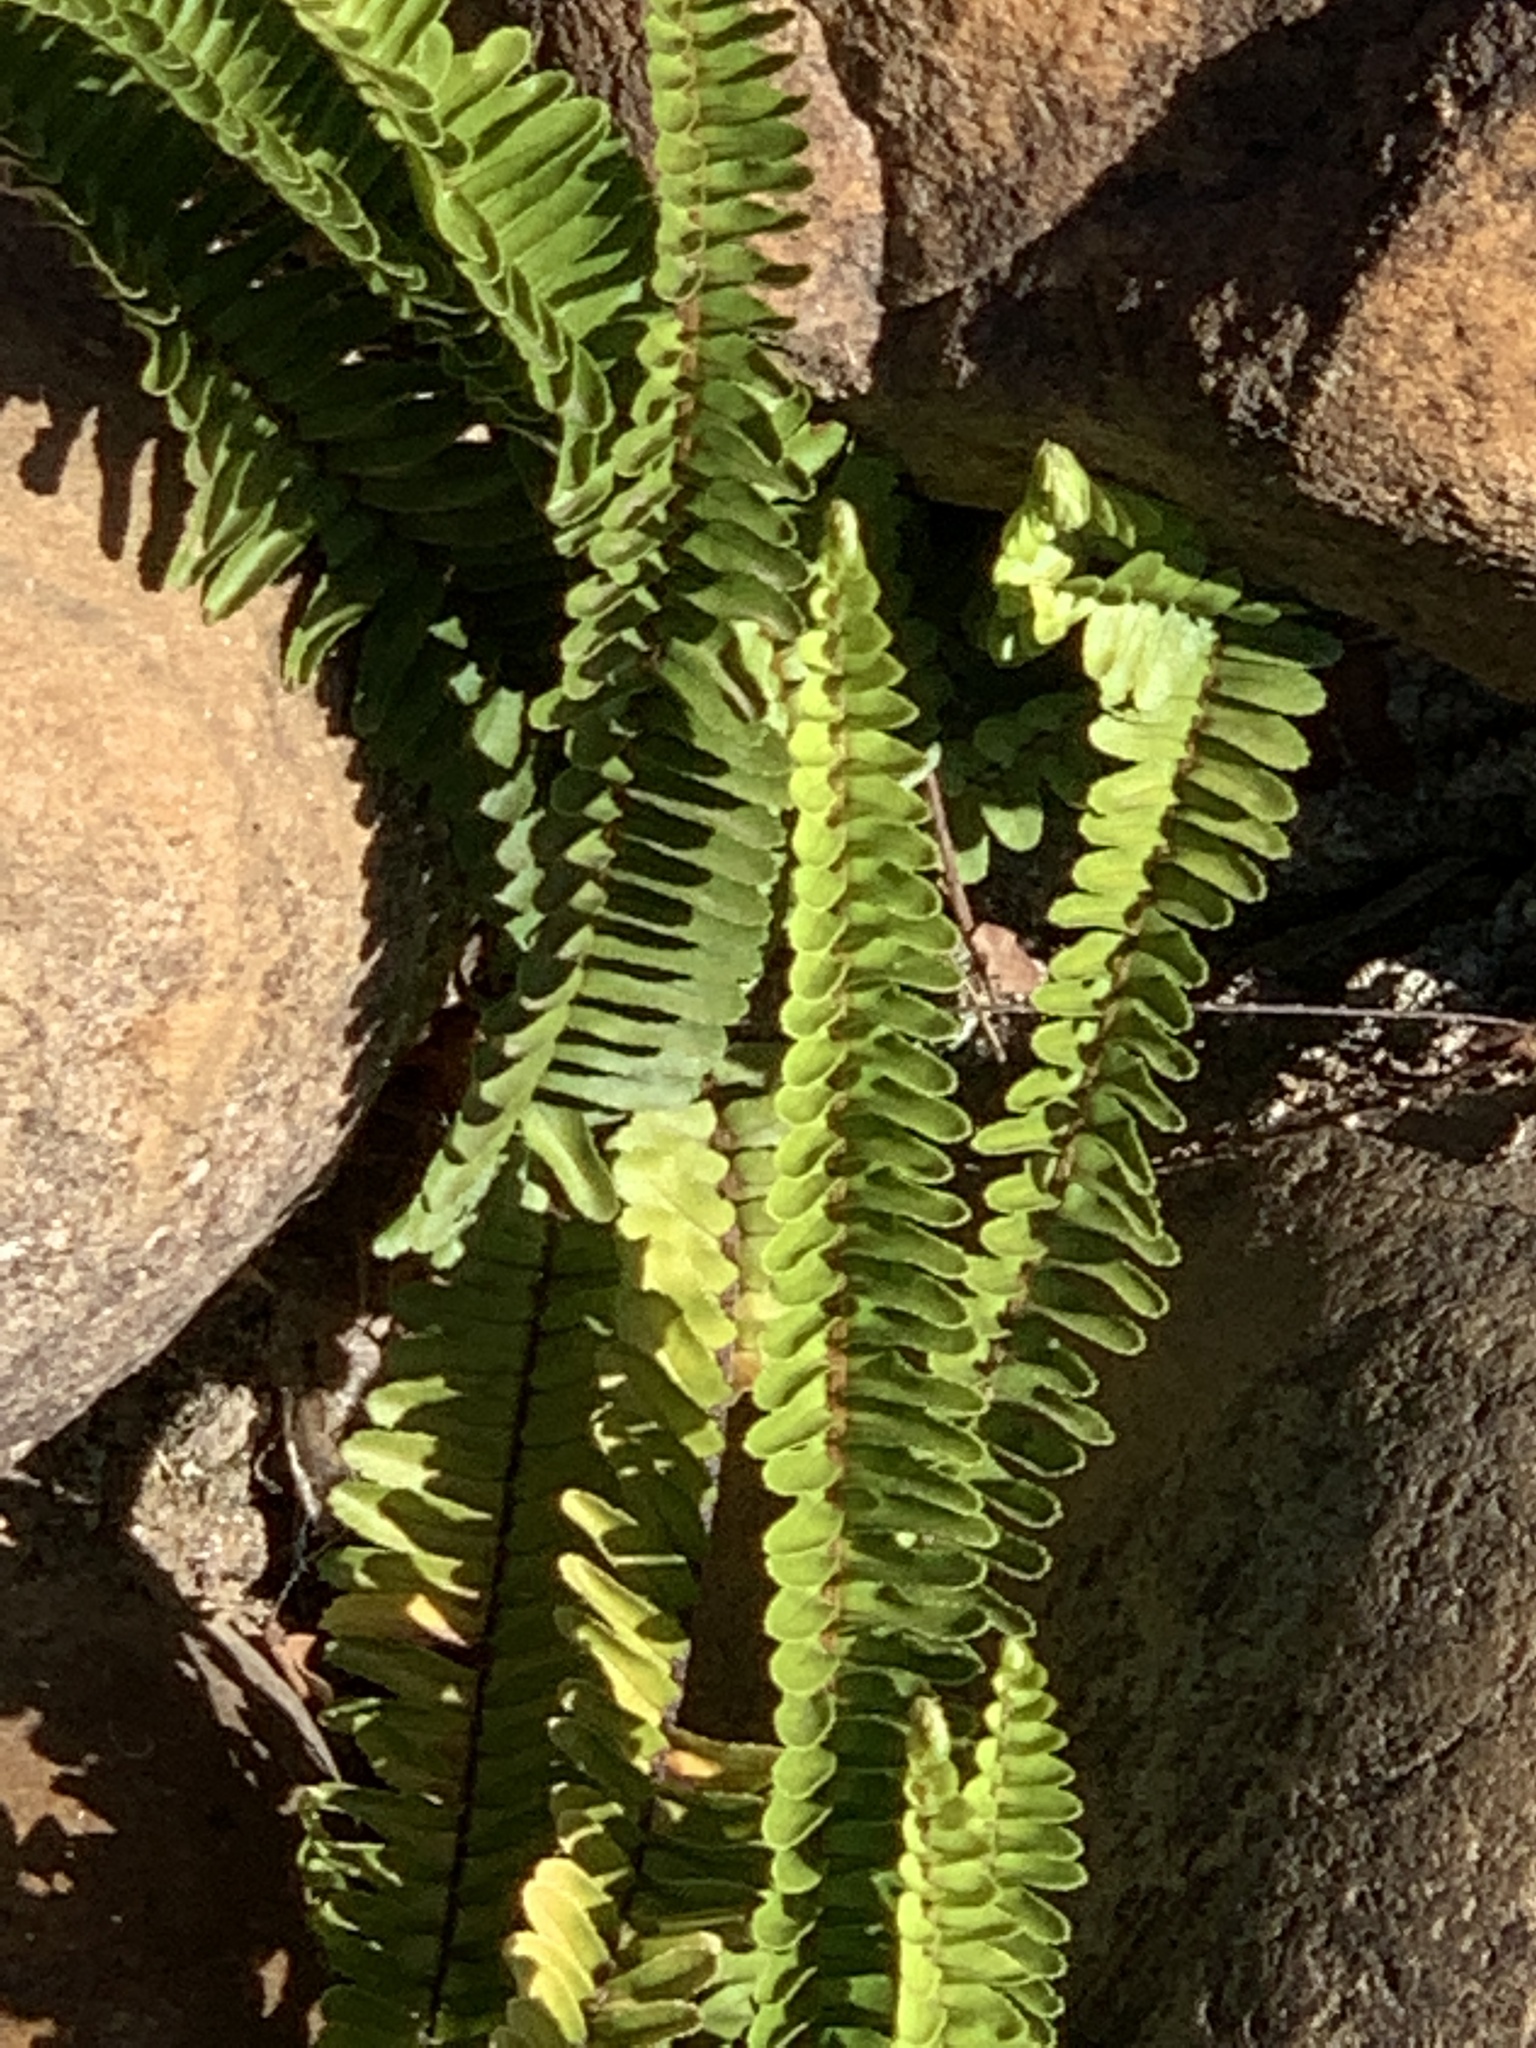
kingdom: Plantae
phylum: Tracheophyta
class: Polypodiopsida
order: Polypodiales
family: Nephrolepidaceae
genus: Nephrolepis
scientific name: Nephrolepis cordifolia
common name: Narrow swordfern
